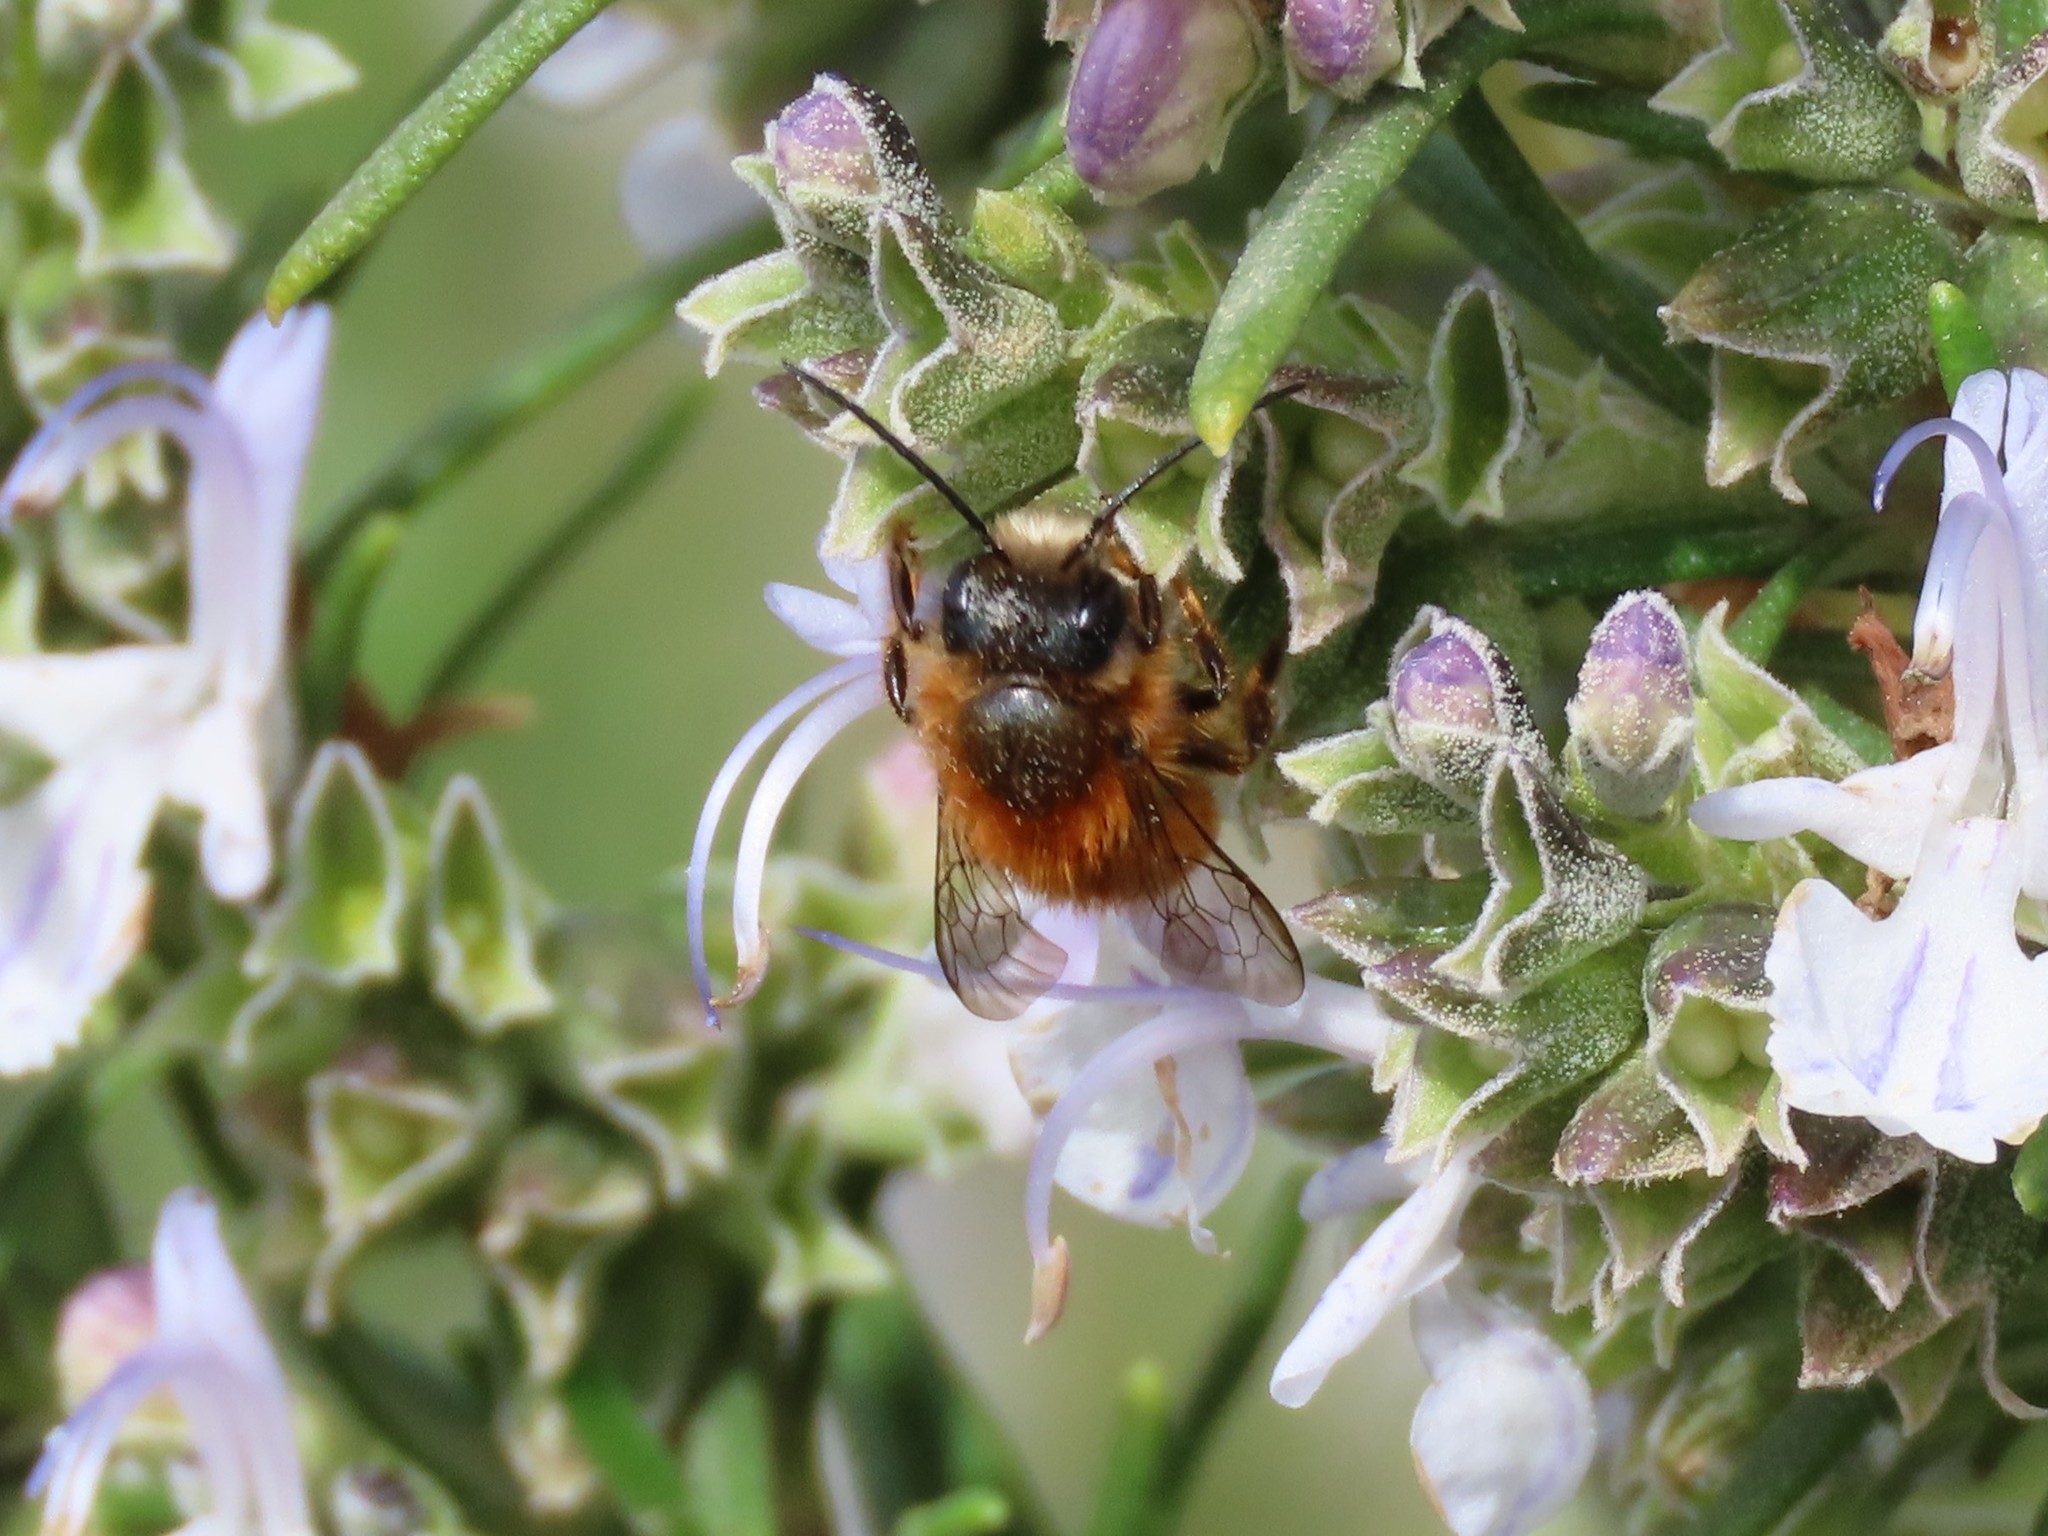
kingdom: Animalia
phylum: Arthropoda
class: Insecta
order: Hymenoptera
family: Megachilidae
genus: Osmia
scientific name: Osmia tricornis
